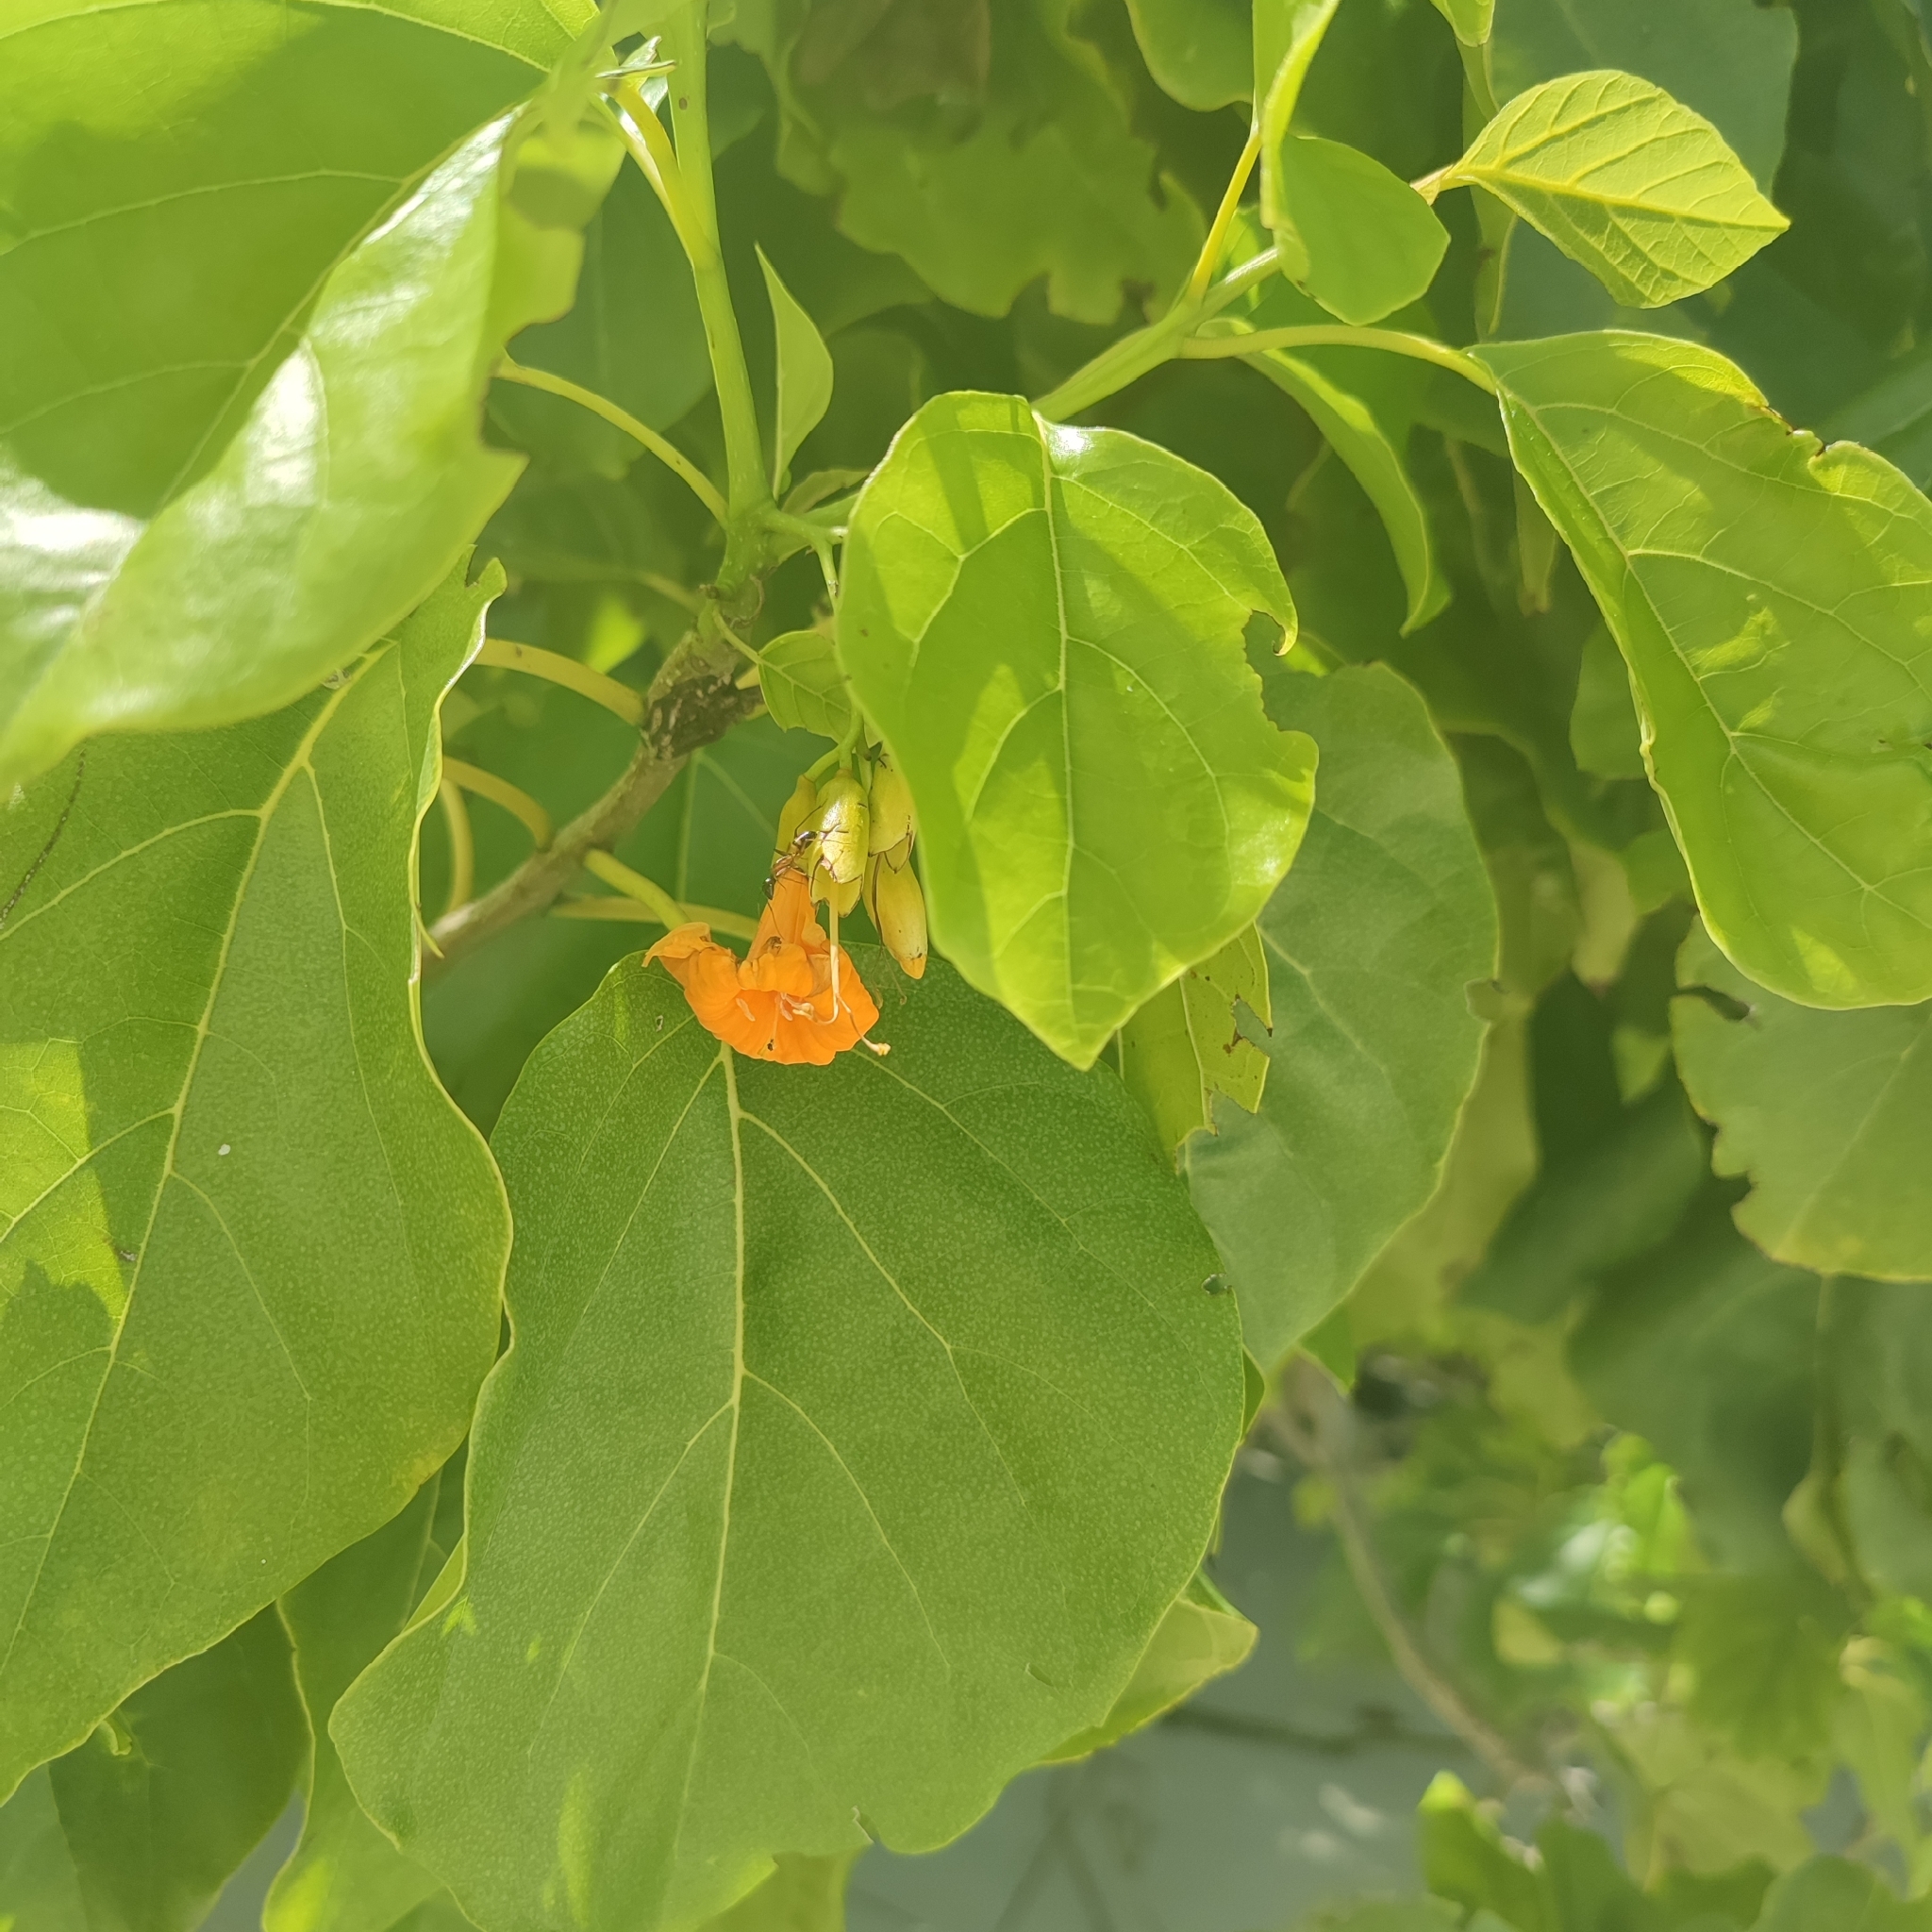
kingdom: Plantae
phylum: Tracheophyta
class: Magnoliopsida
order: Boraginales
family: Cordiaceae
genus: Cordia
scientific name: Cordia subcordata
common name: Mareer
